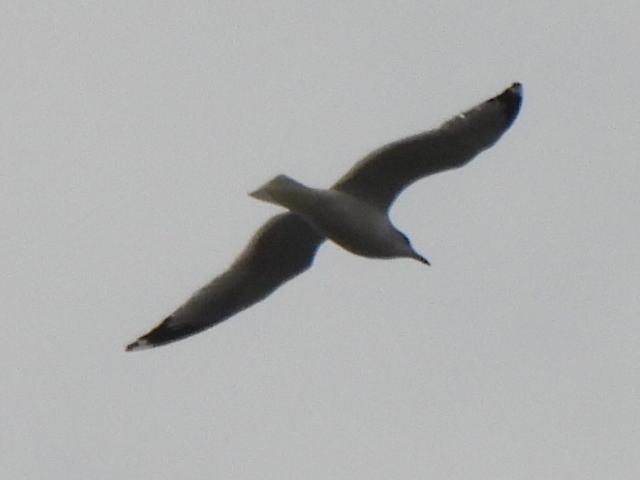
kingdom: Animalia
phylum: Chordata
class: Aves
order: Charadriiformes
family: Laridae
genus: Larus
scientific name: Larus delawarensis
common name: Ring-billed gull
